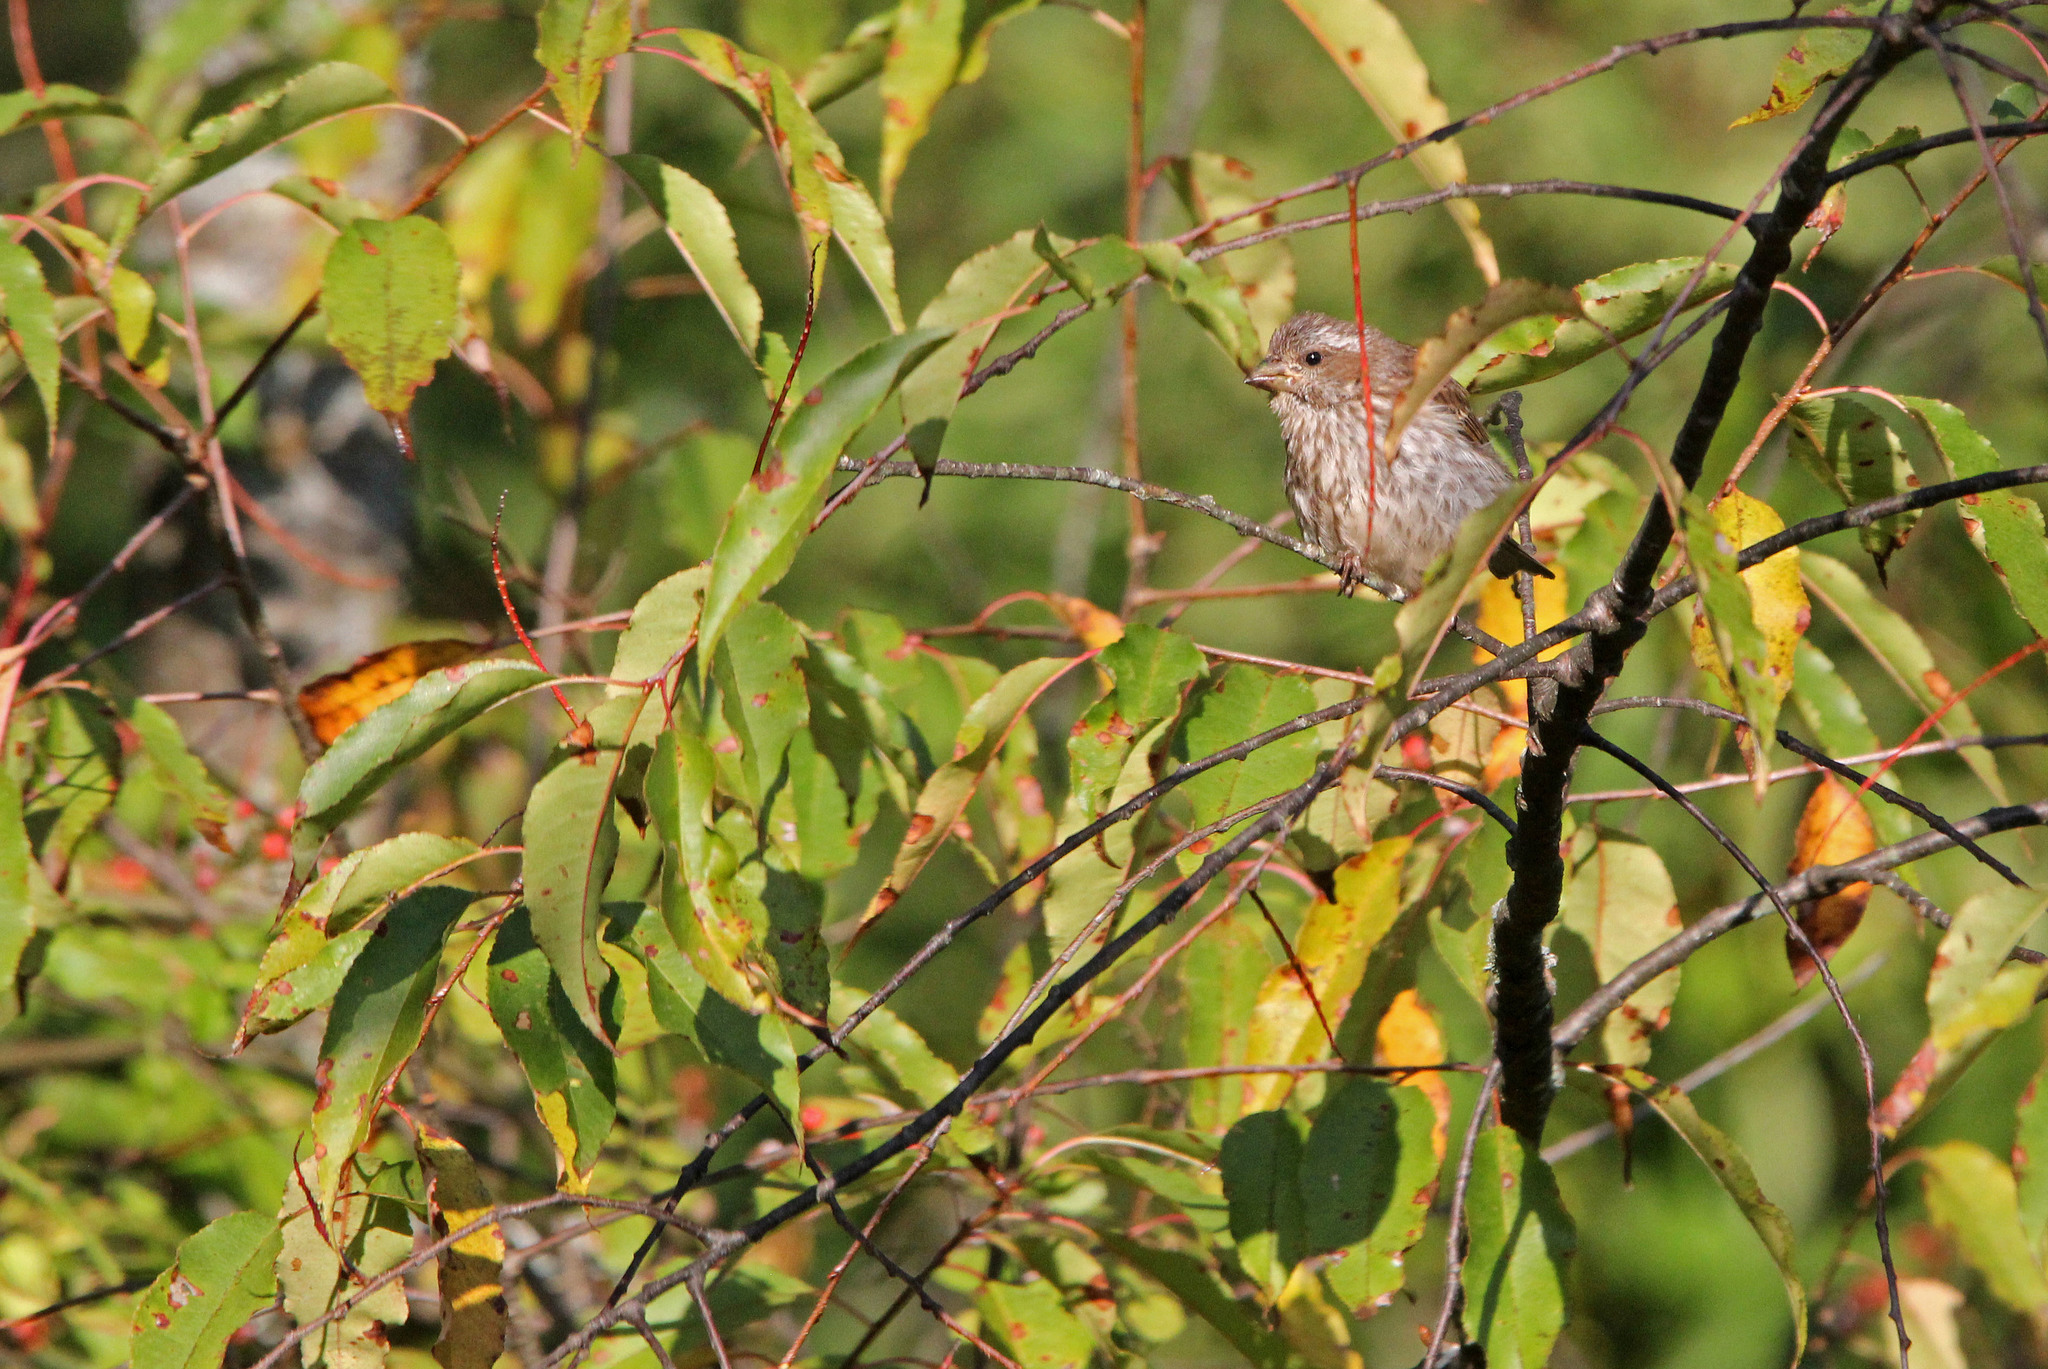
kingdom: Animalia
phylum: Chordata
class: Aves
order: Passeriformes
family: Fringillidae
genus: Haemorhous
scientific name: Haemorhous purpureus
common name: Purple finch
